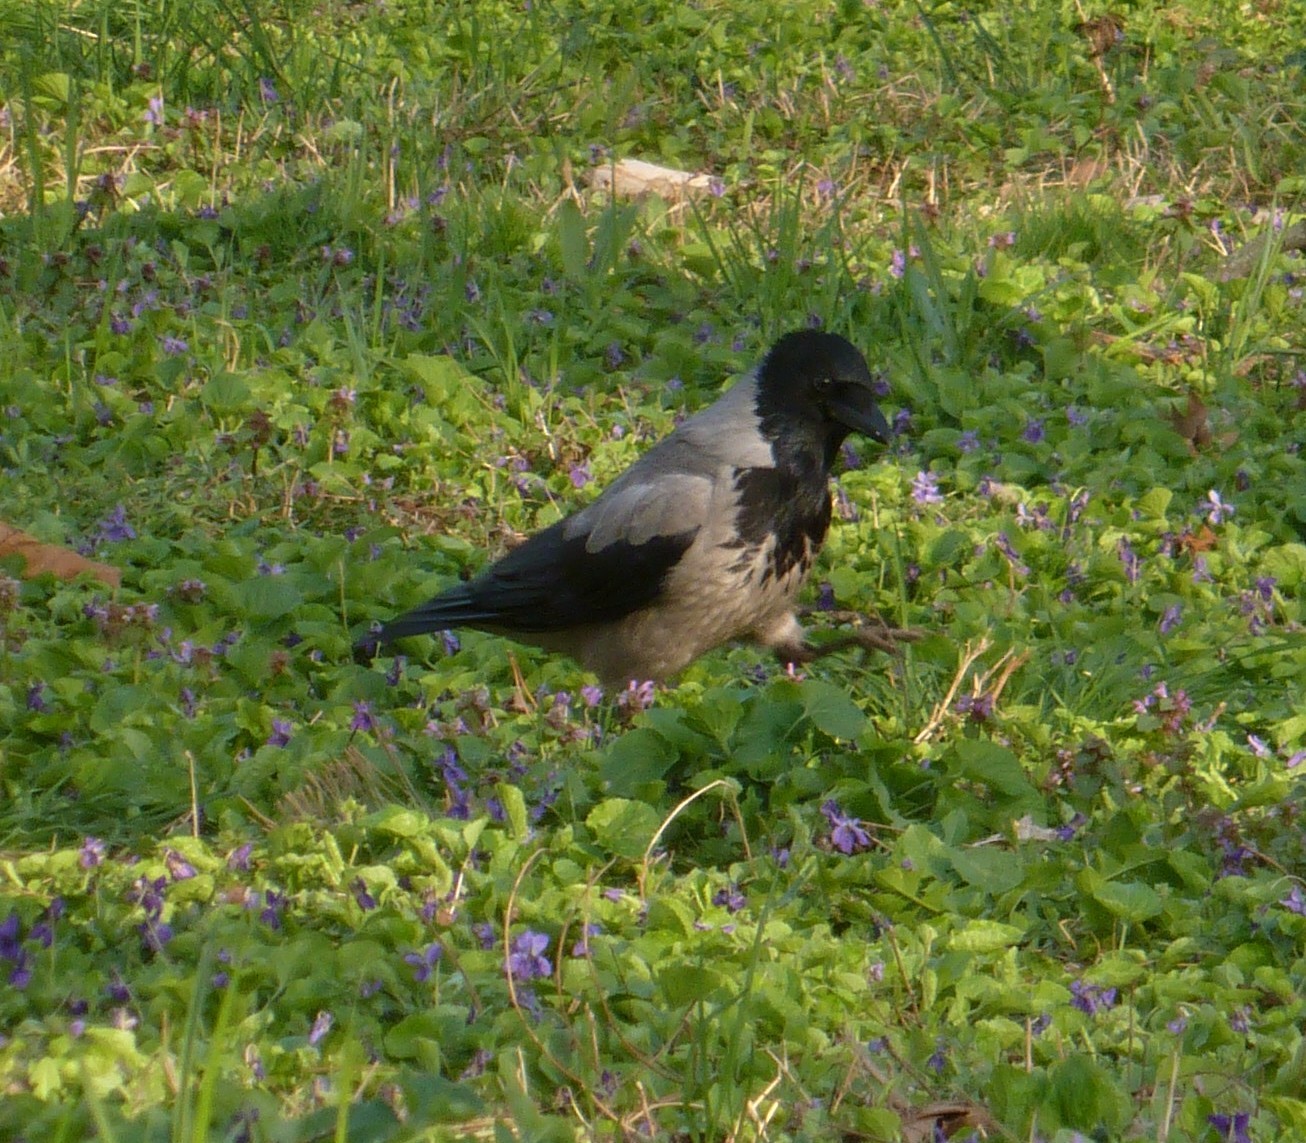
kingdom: Animalia
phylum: Chordata
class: Aves
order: Passeriformes
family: Corvidae
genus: Corvus
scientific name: Corvus cornix
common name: Hooded crow
